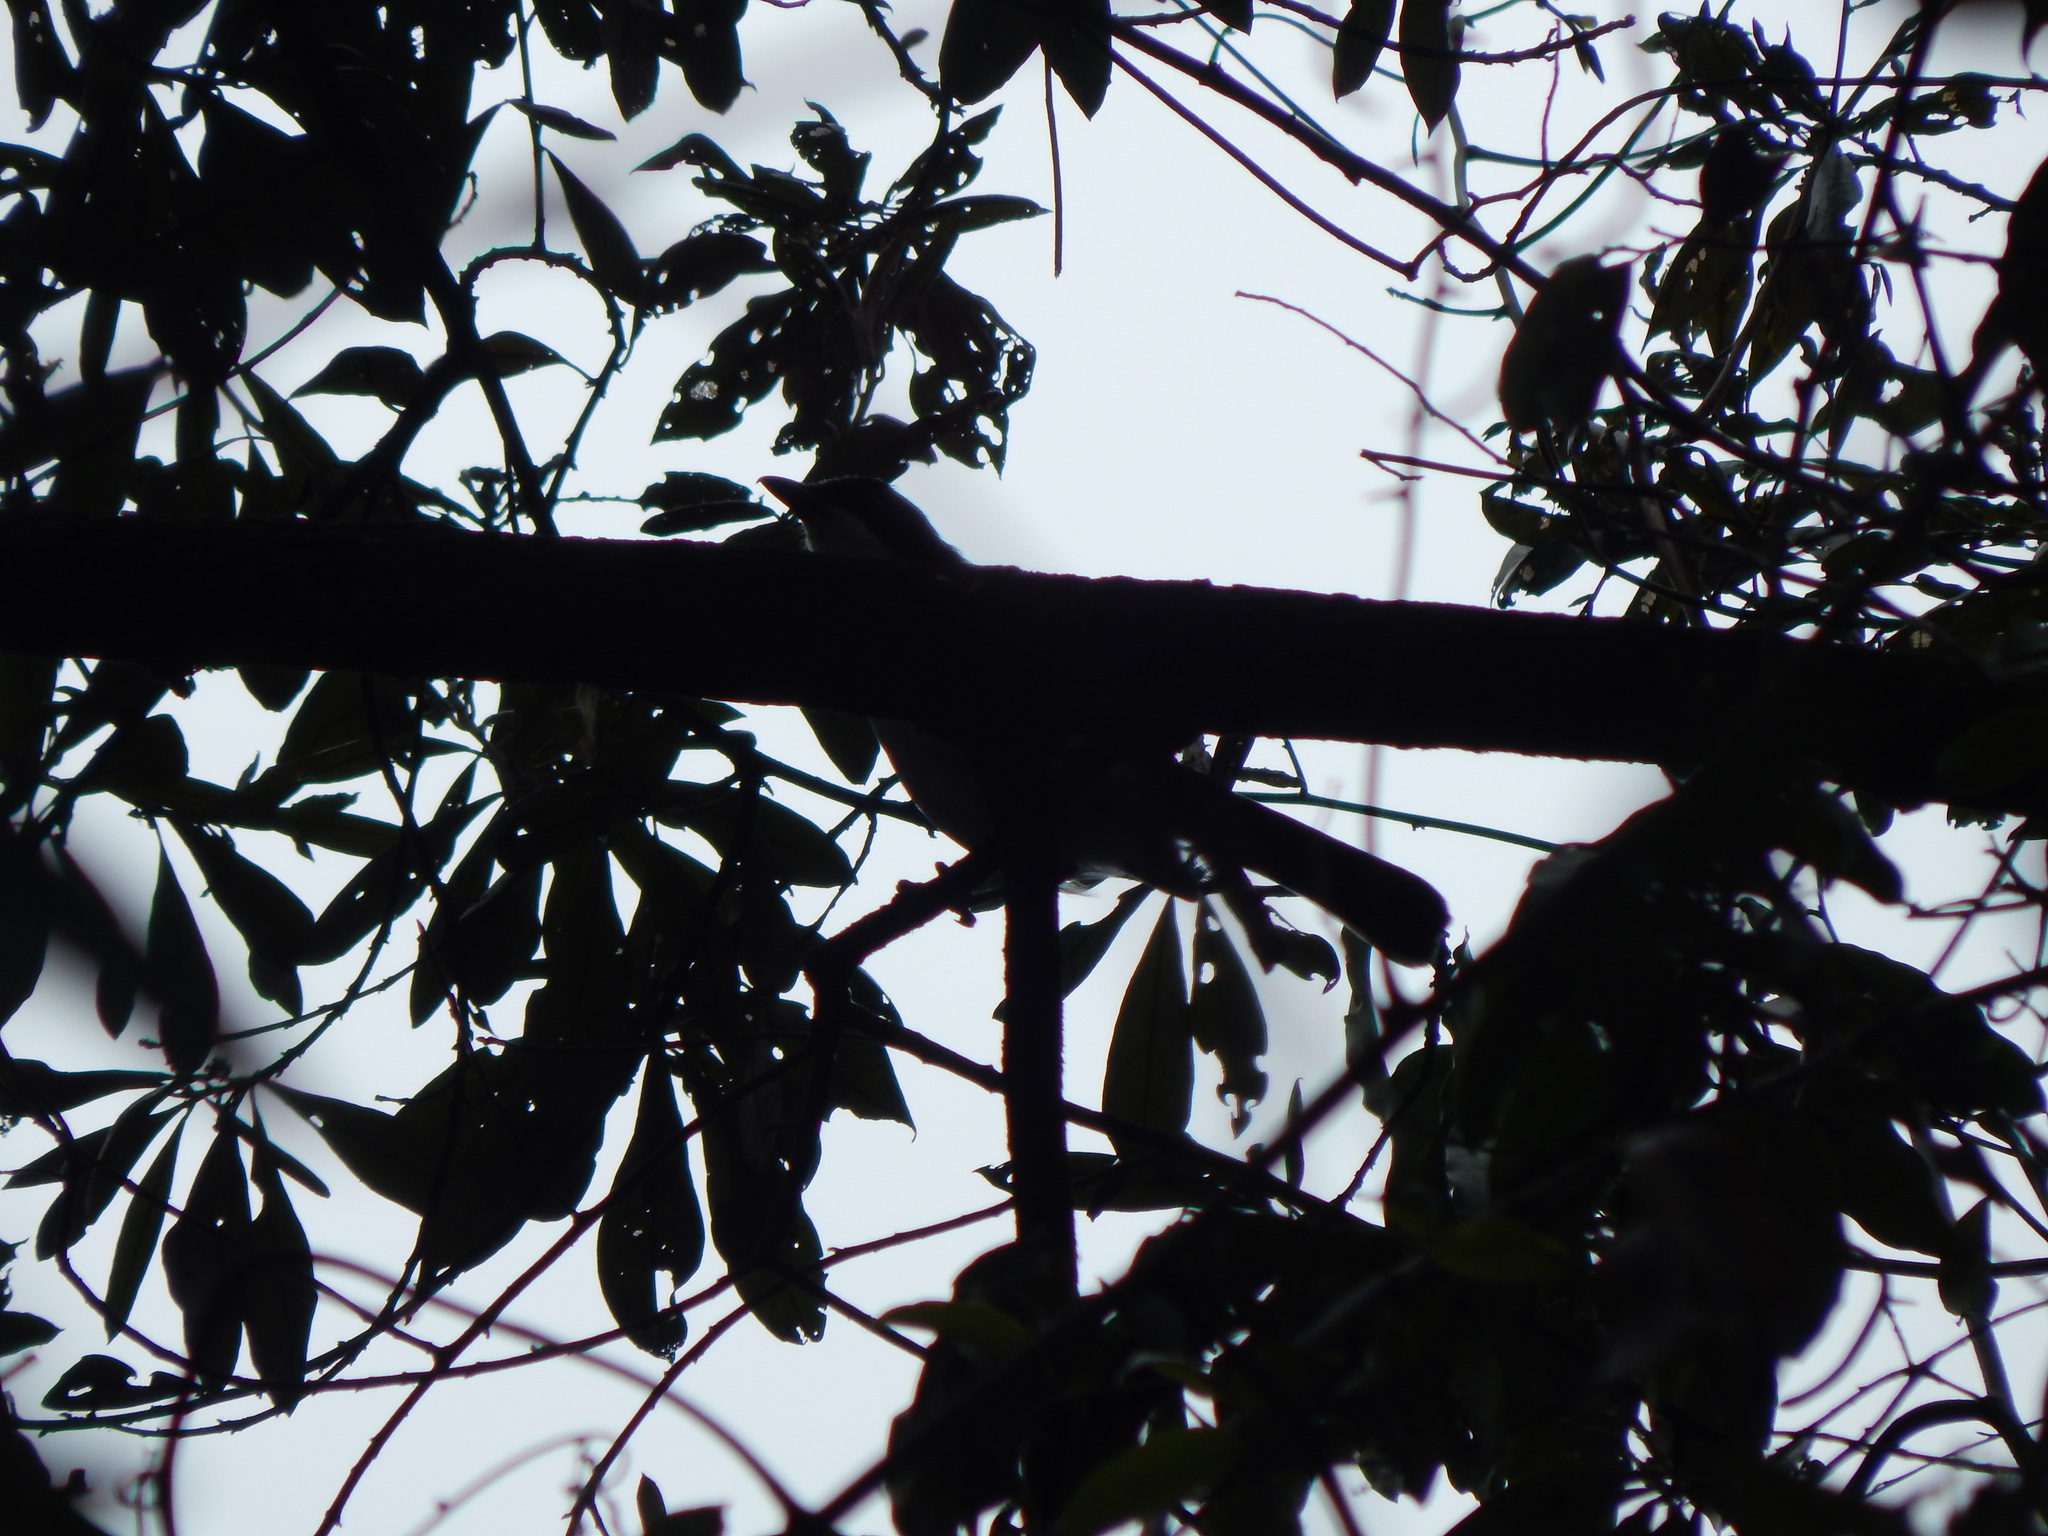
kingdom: Animalia
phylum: Chordata
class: Aves
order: Passeriformes
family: Malaconotidae
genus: Laniarius
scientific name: Laniarius major
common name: Tropical boubou
